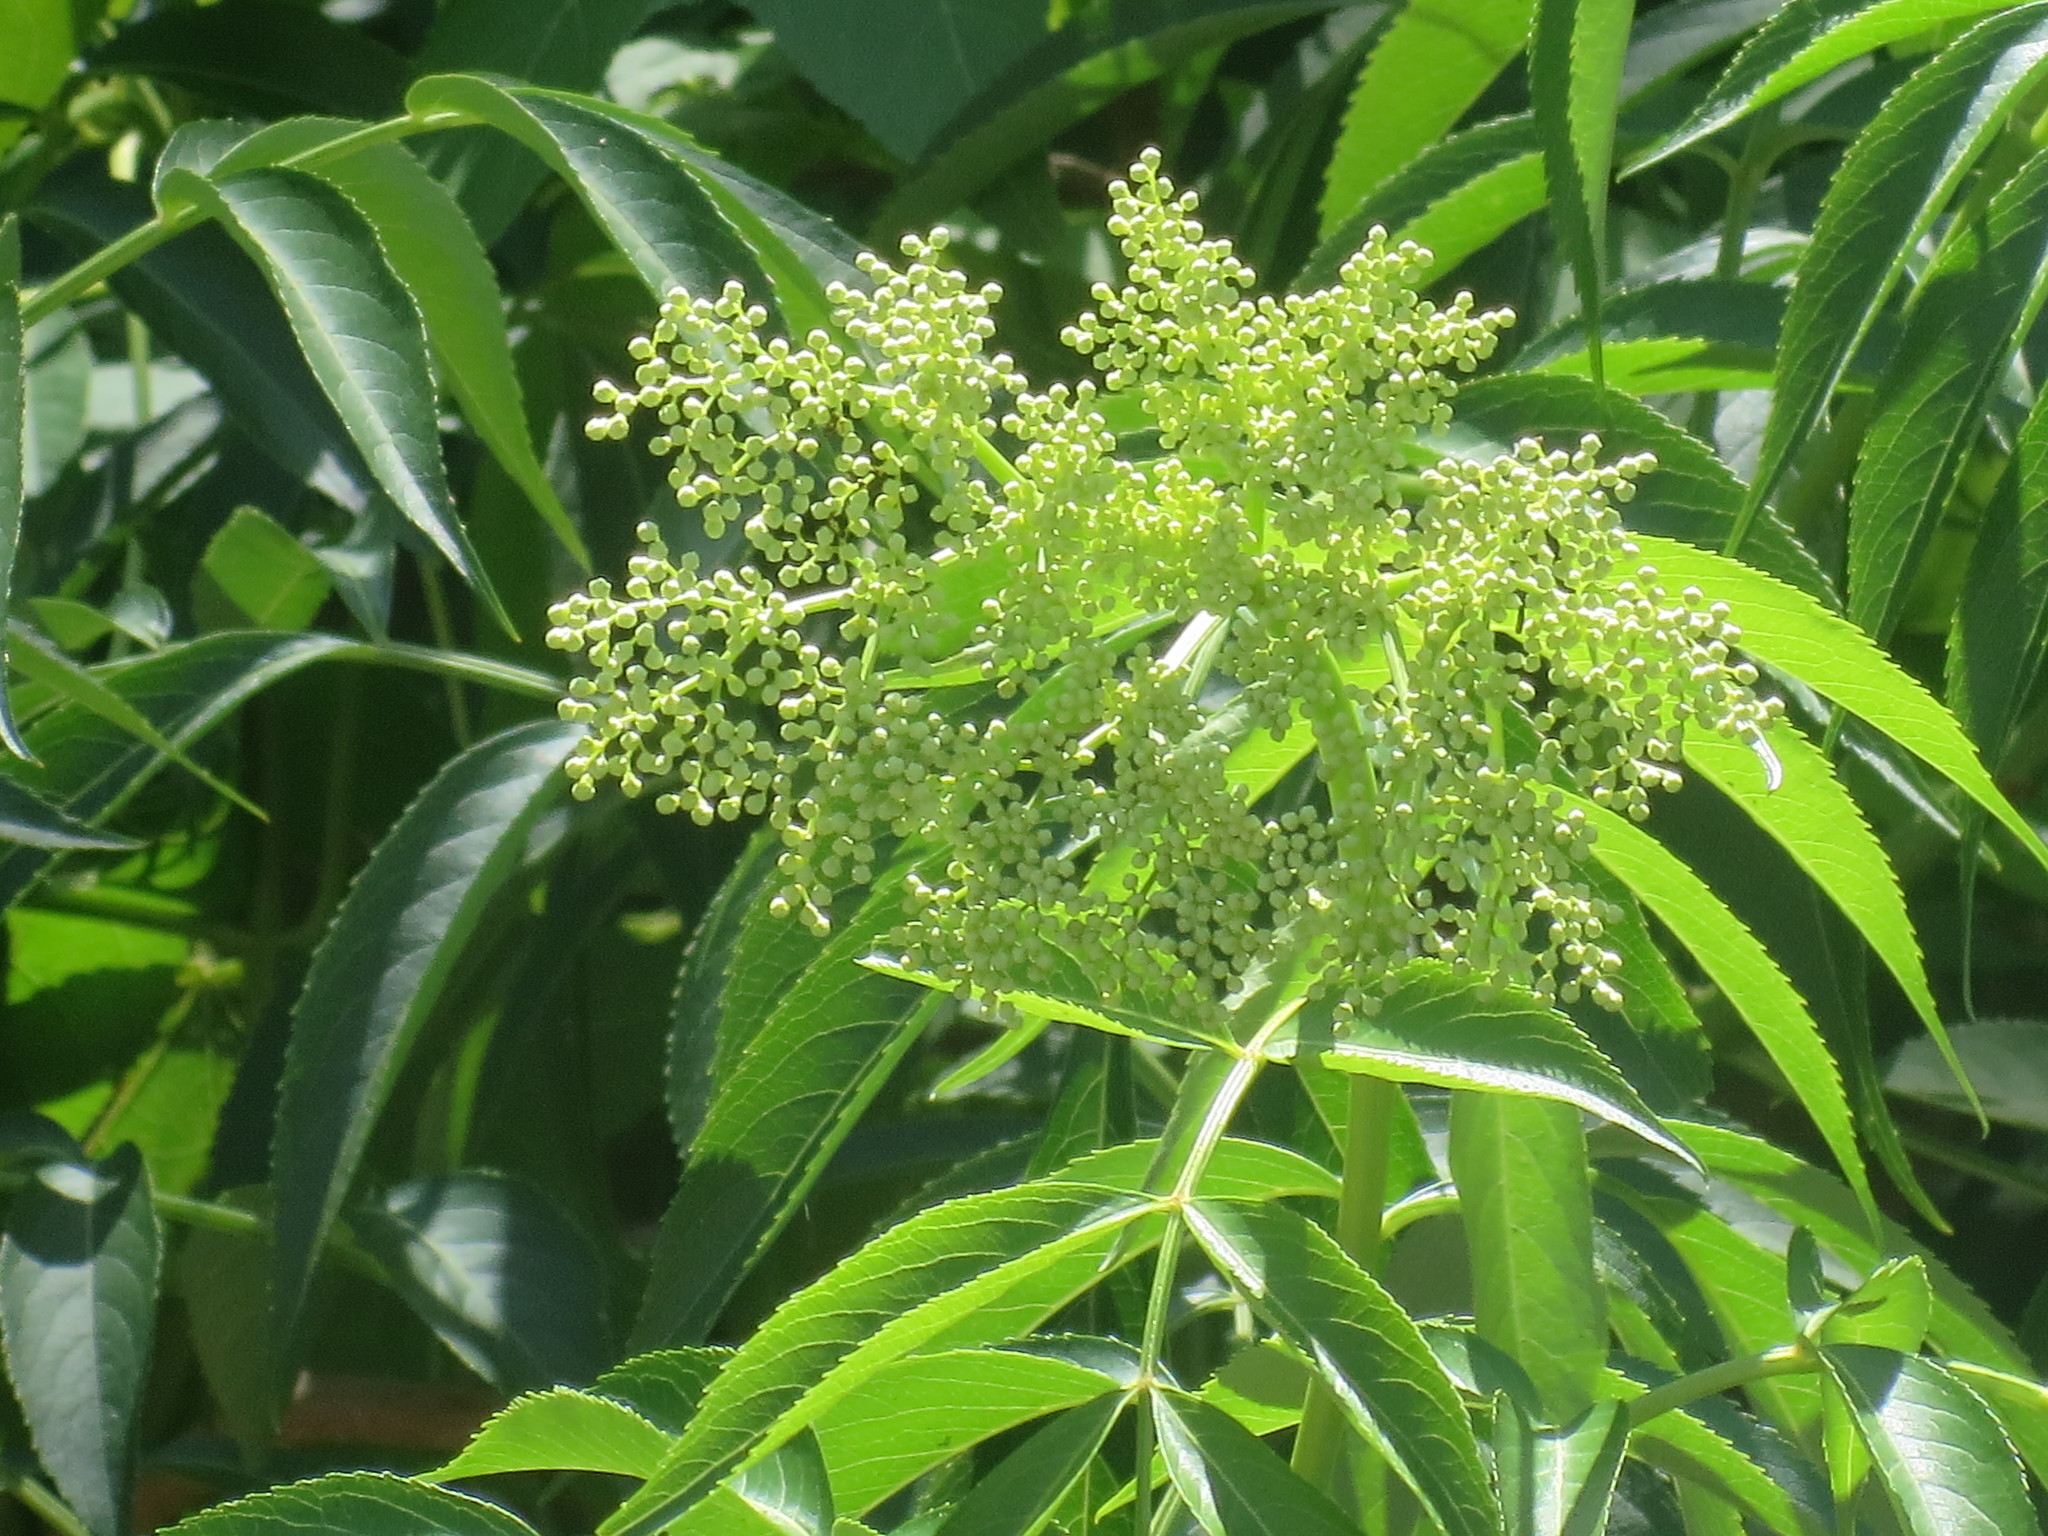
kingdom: Plantae
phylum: Tracheophyta
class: Magnoliopsida
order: Dipsacales
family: Viburnaceae
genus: Sambucus
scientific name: Sambucus canadensis
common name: American elder
